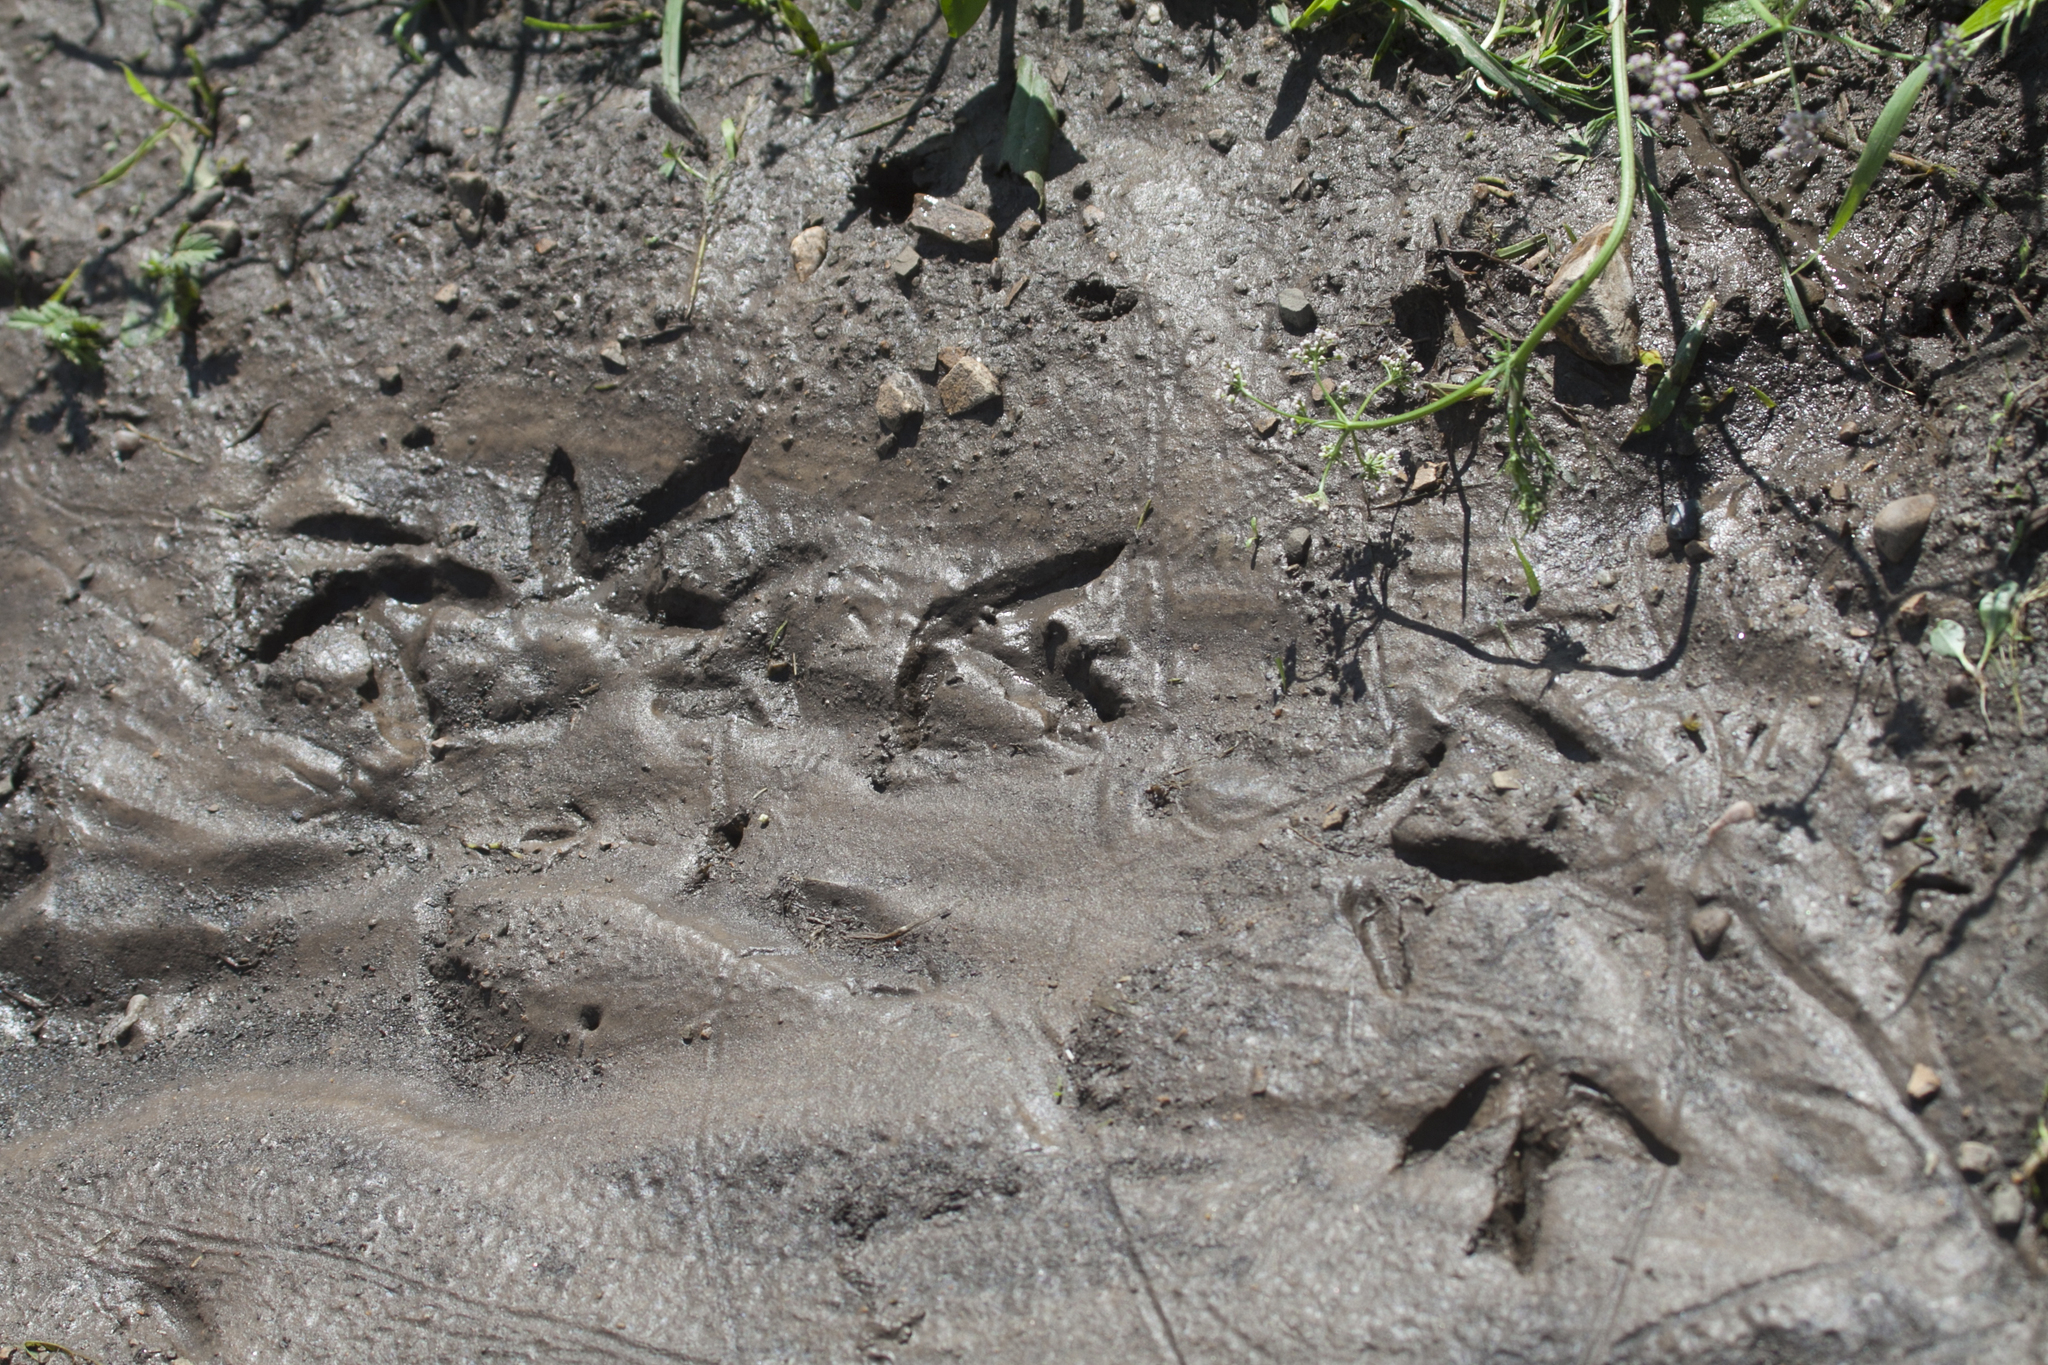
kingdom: Animalia
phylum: Chordata
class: Aves
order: Charadriiformes
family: Scolopacidae
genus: Actitis
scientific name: Actitis hypoleucos
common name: Common sandpiper
